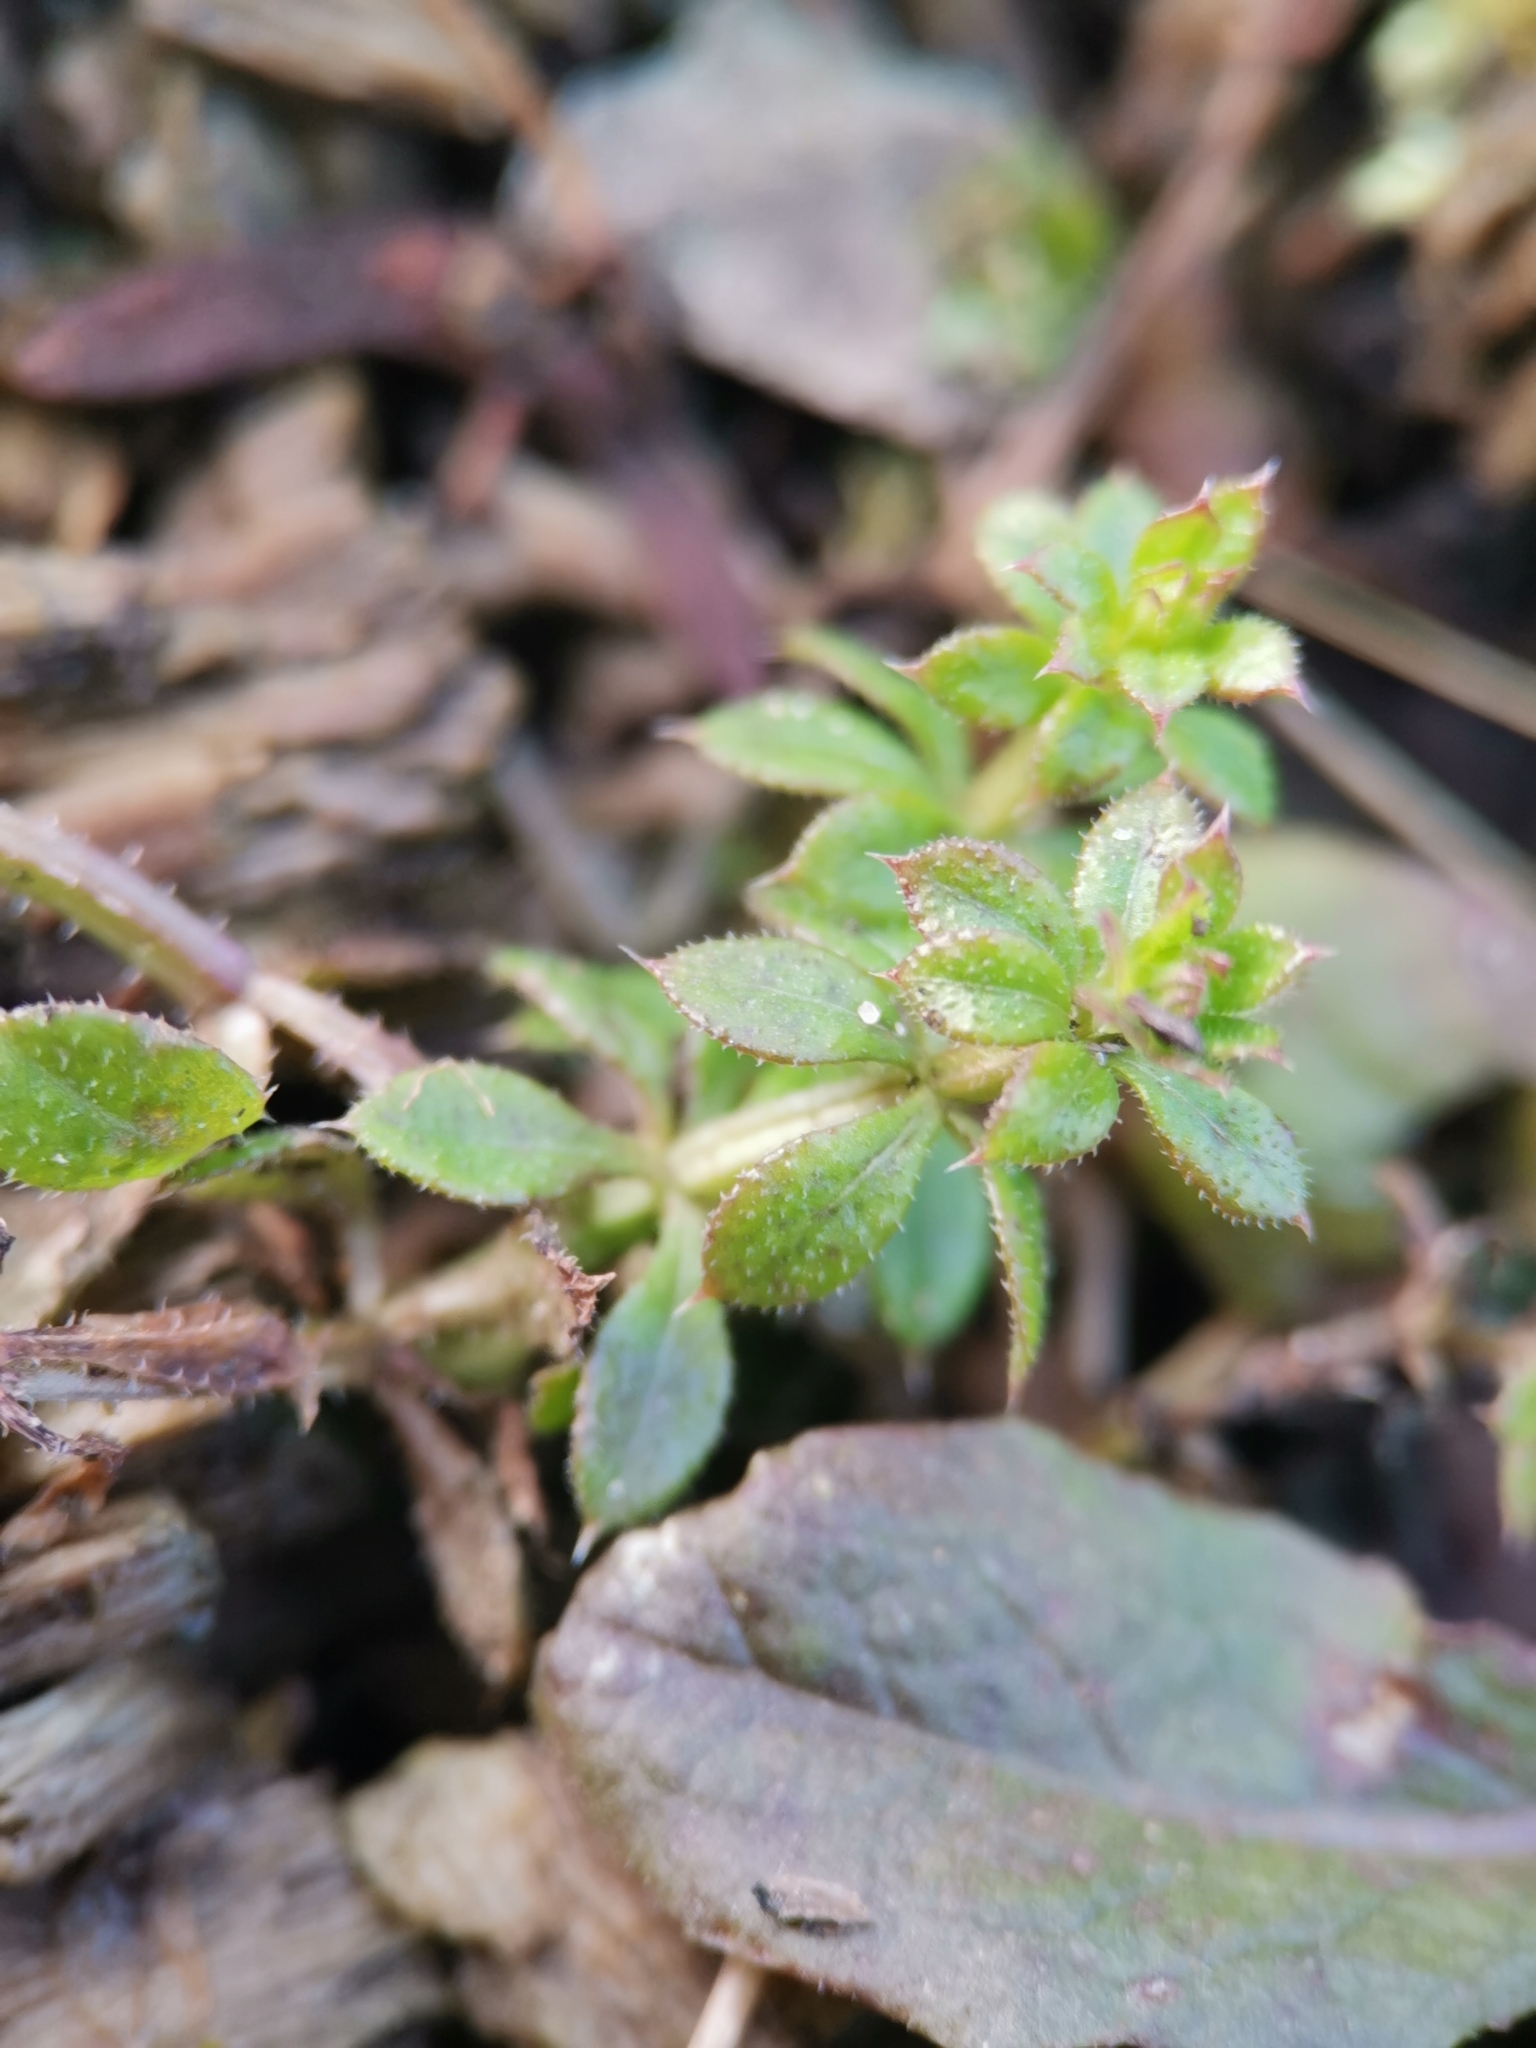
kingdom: Plantae
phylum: Tracheophyta
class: Magnoliopsida
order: Gentianales
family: Rubiaceae
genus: Galium
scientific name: Galium aparine
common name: Cleavers
